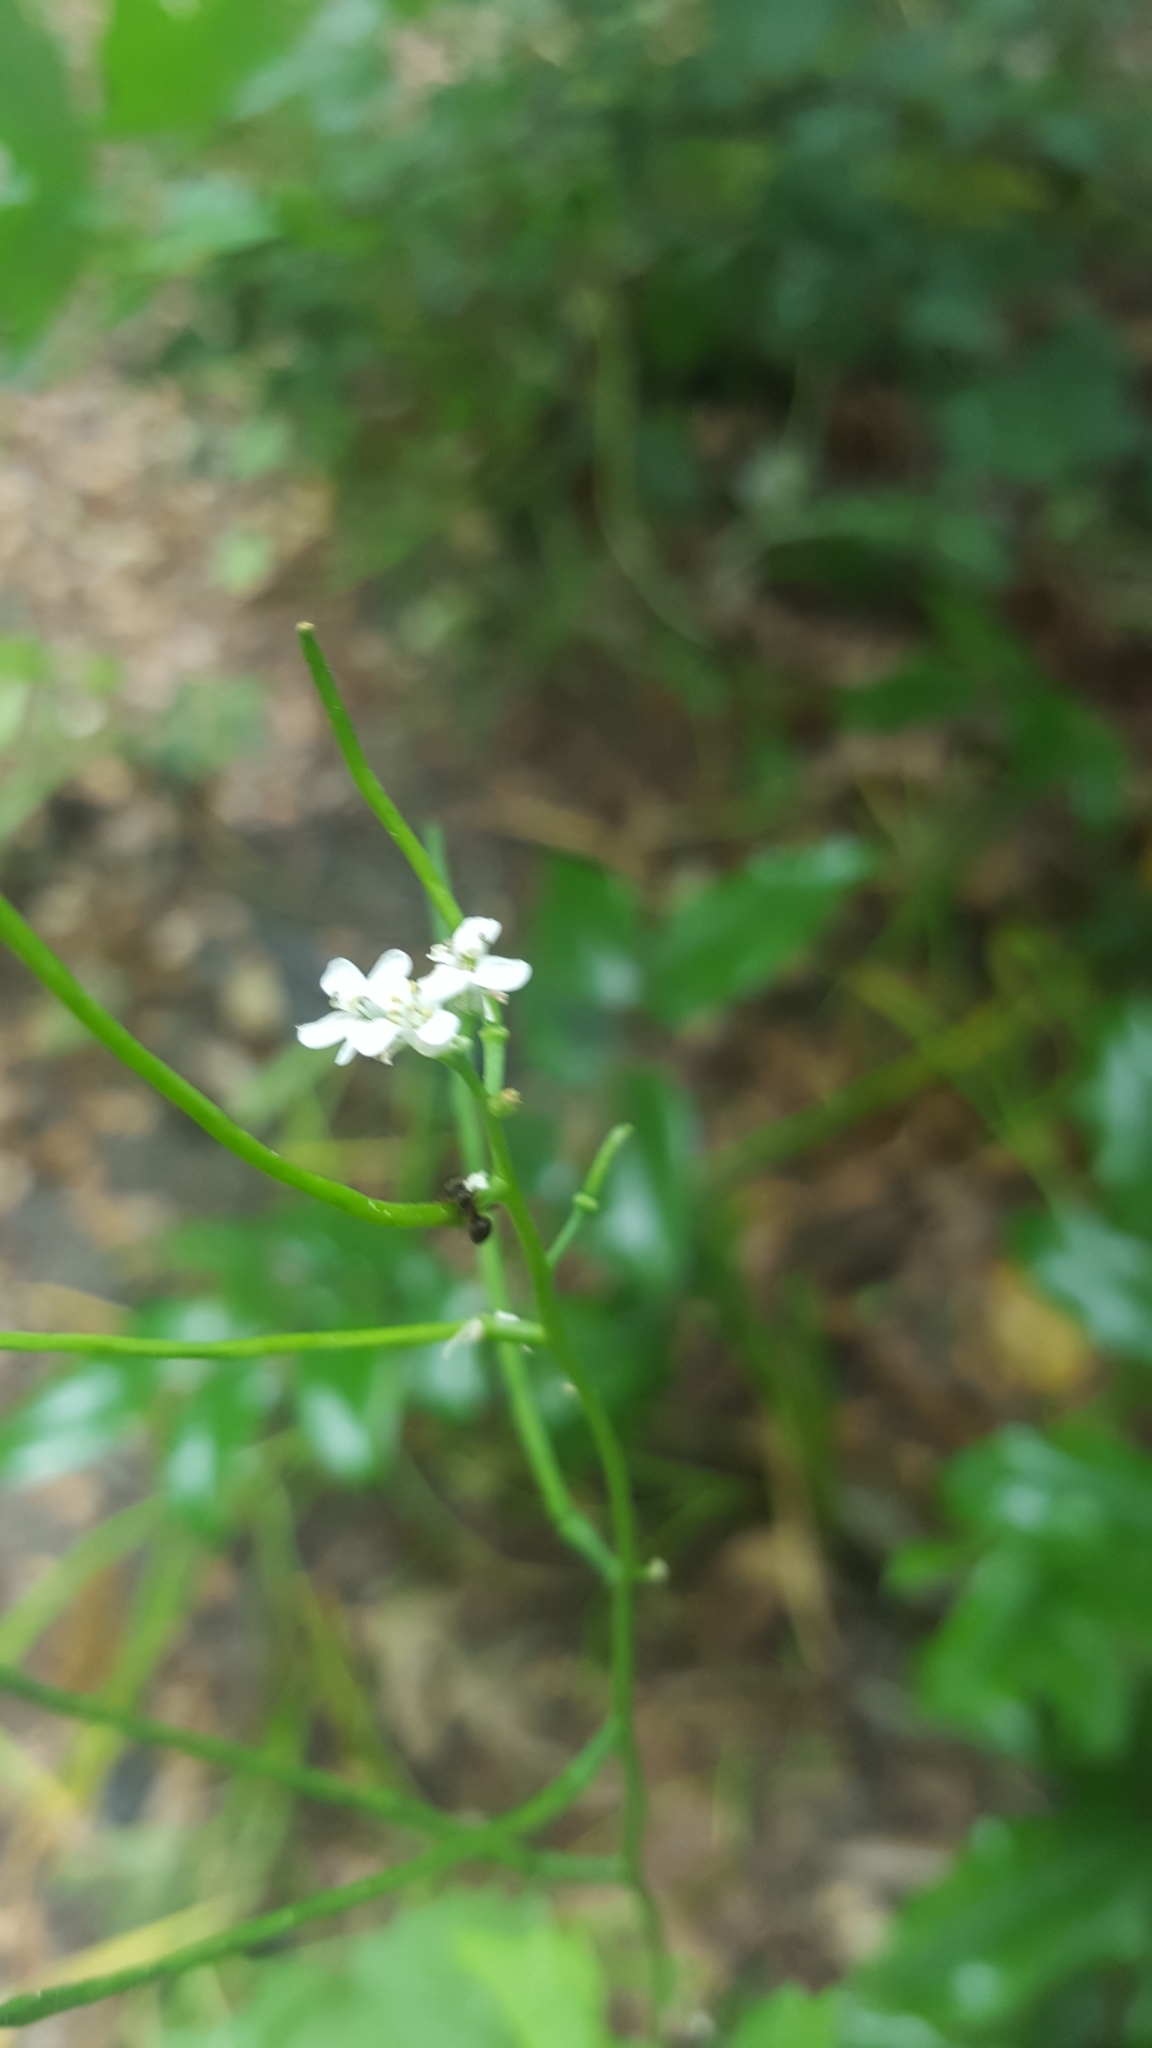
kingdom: Plantae
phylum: Tracheophyta
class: Magnoliopsida
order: Brassicales
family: Brassicaceae
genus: Alliaria
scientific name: Alliaria petiolata
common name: Garlic mustard
